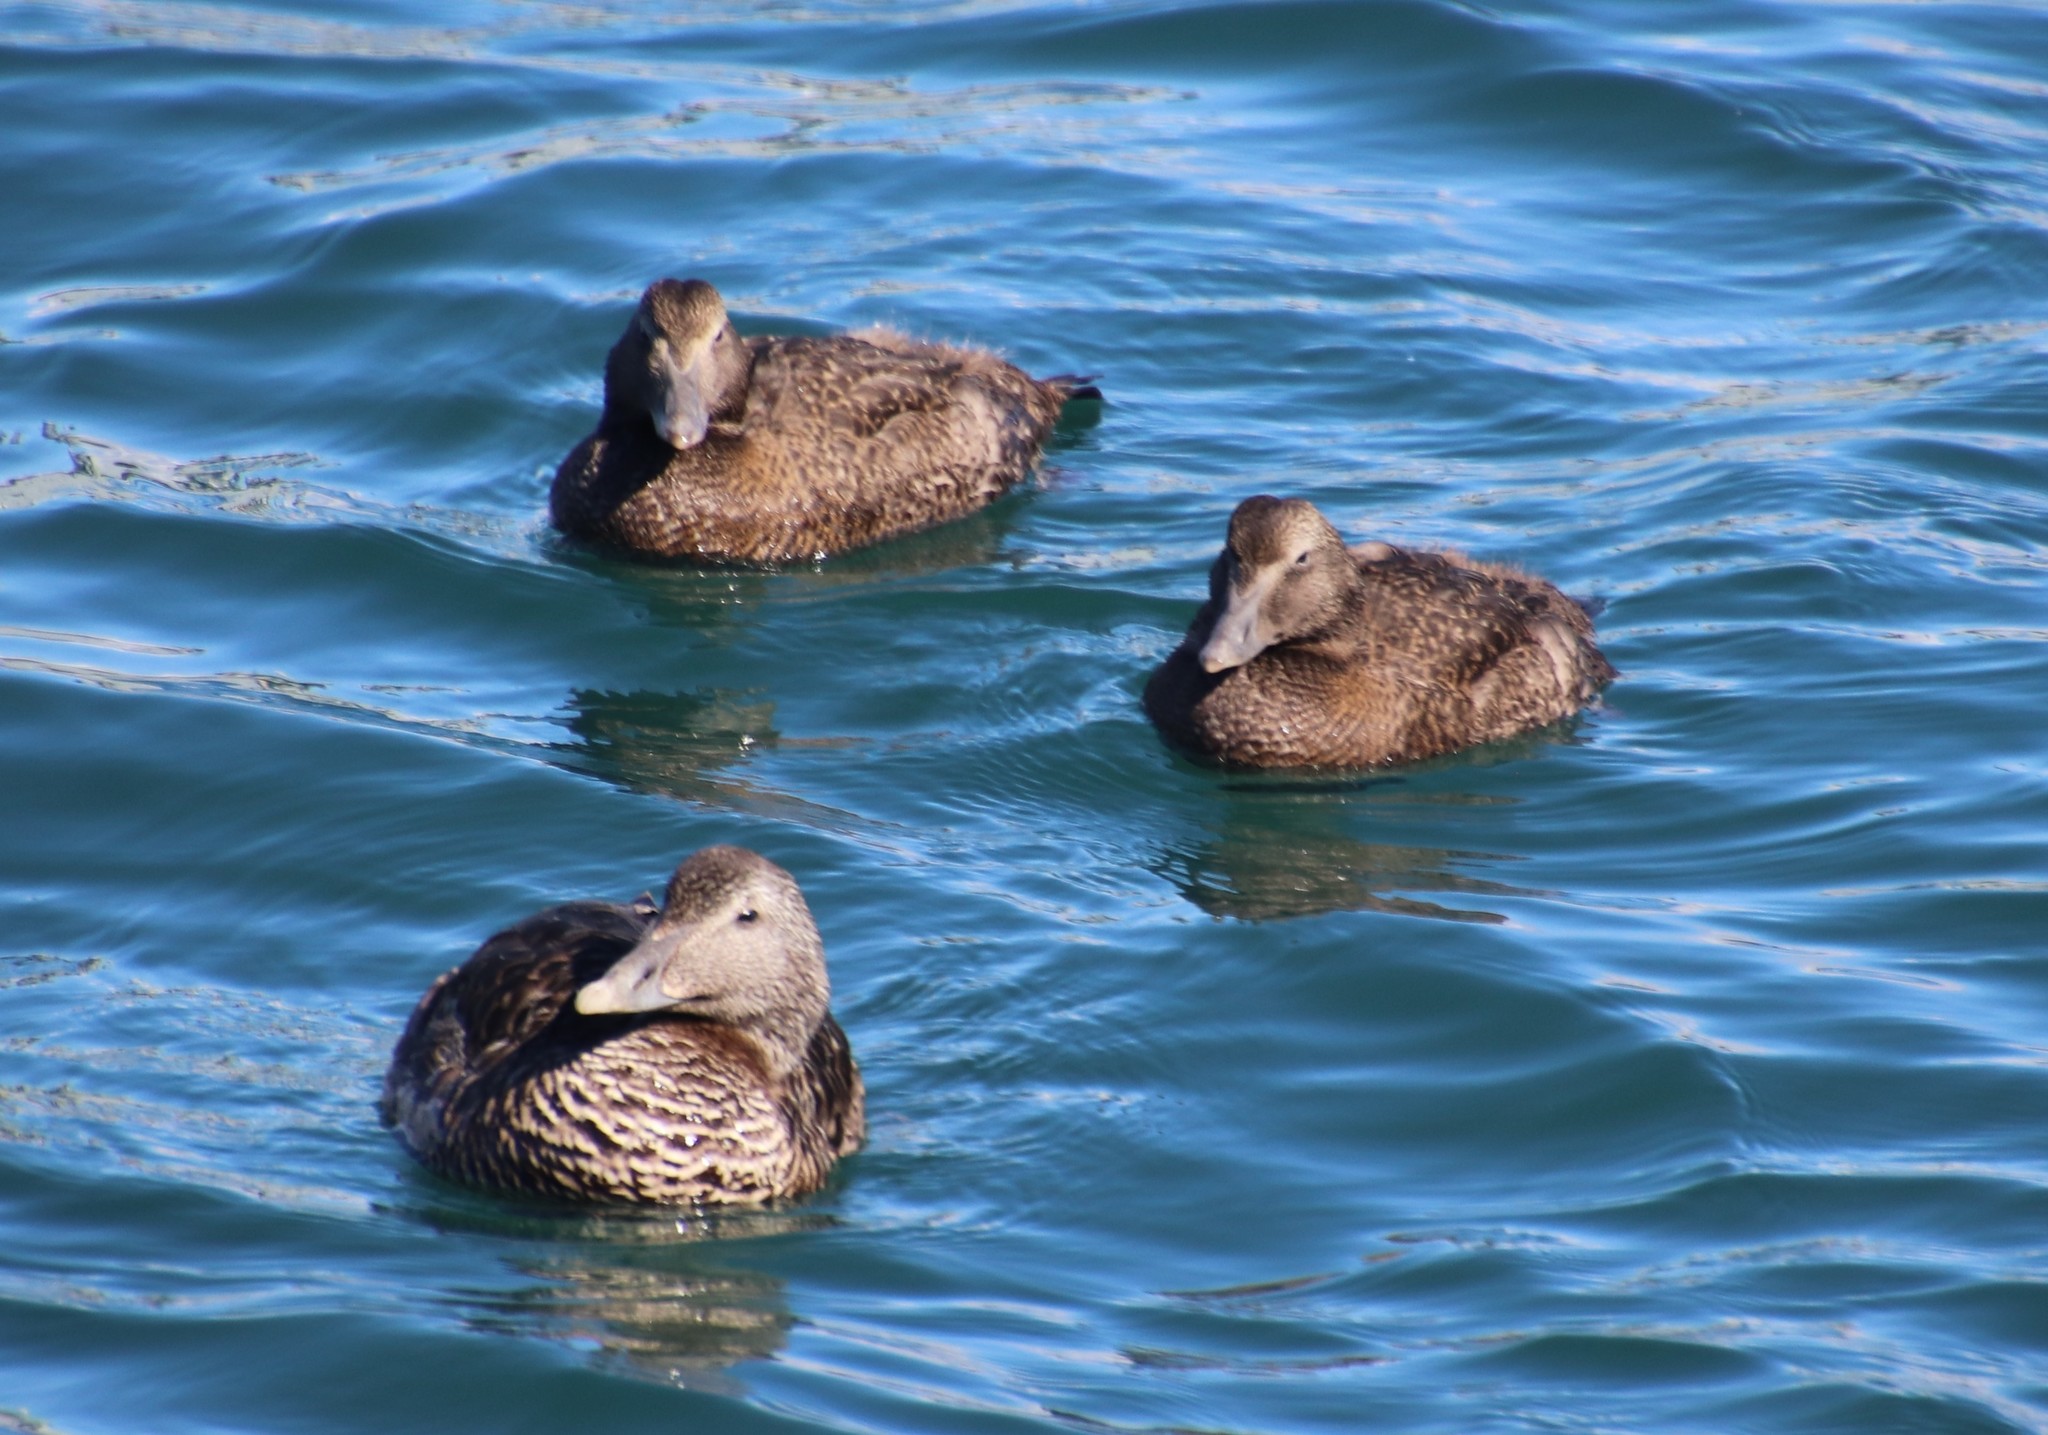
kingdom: Animalia
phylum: Chordata
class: Aves
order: Anseriformes
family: Anatidae
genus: Somateria
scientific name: Somateria mollissima
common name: Common eider
